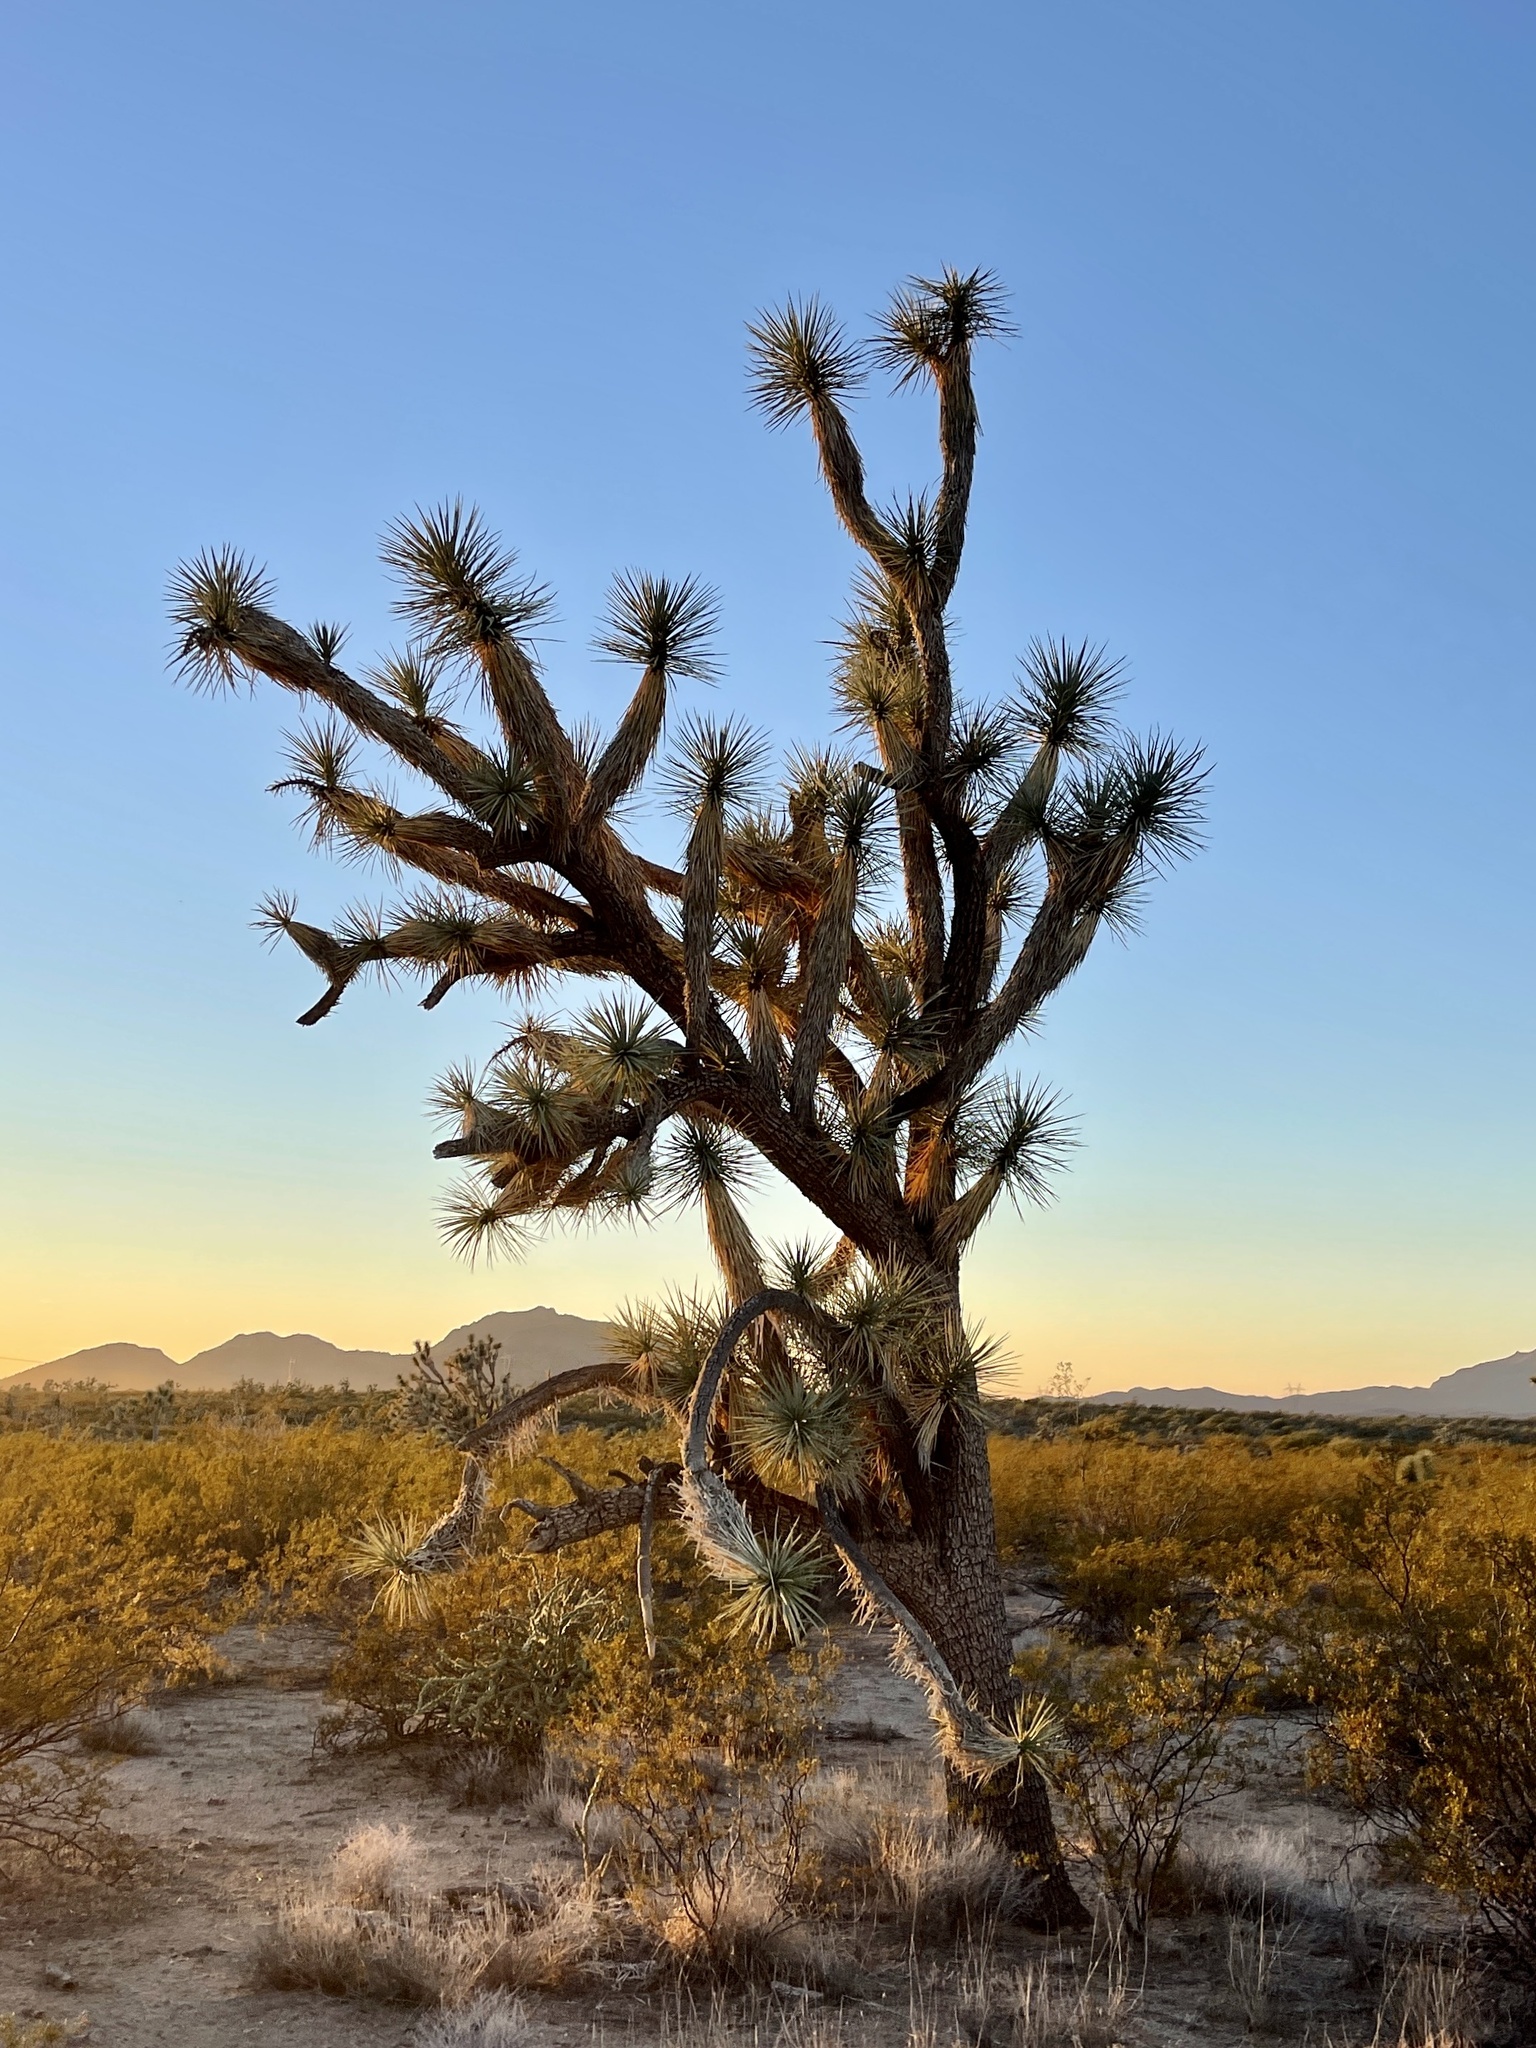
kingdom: Plantae
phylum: Tracheophyta
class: Liliopsida
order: Asparagales
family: Asparagaceae
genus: Yucca
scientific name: Yucca brevifolia
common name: Joshua tree
